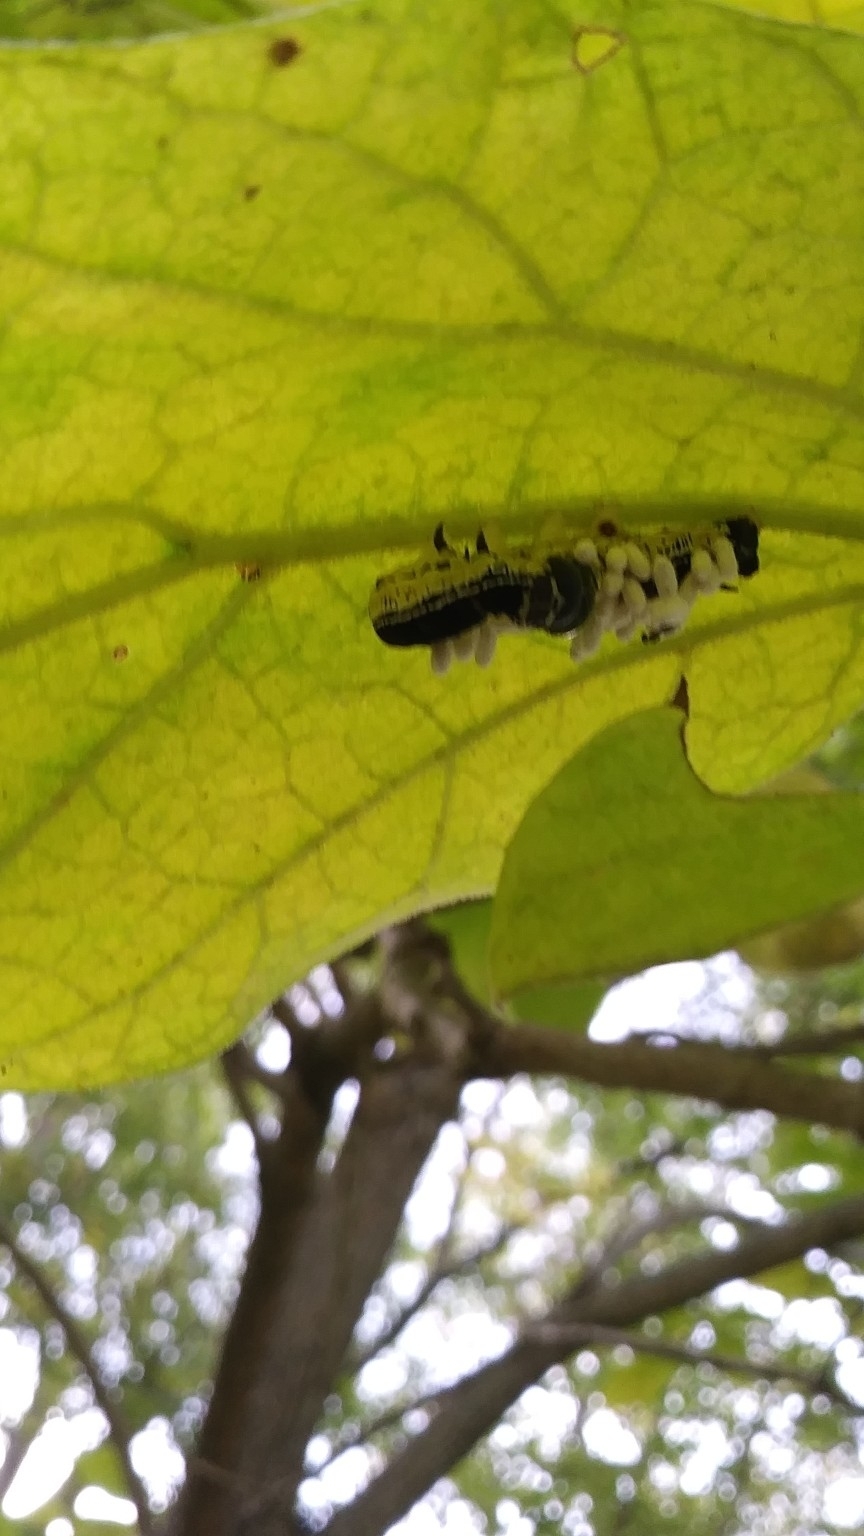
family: Polydnaviriformidae
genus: Bracoviriform
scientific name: Bracoviriform congregatae
